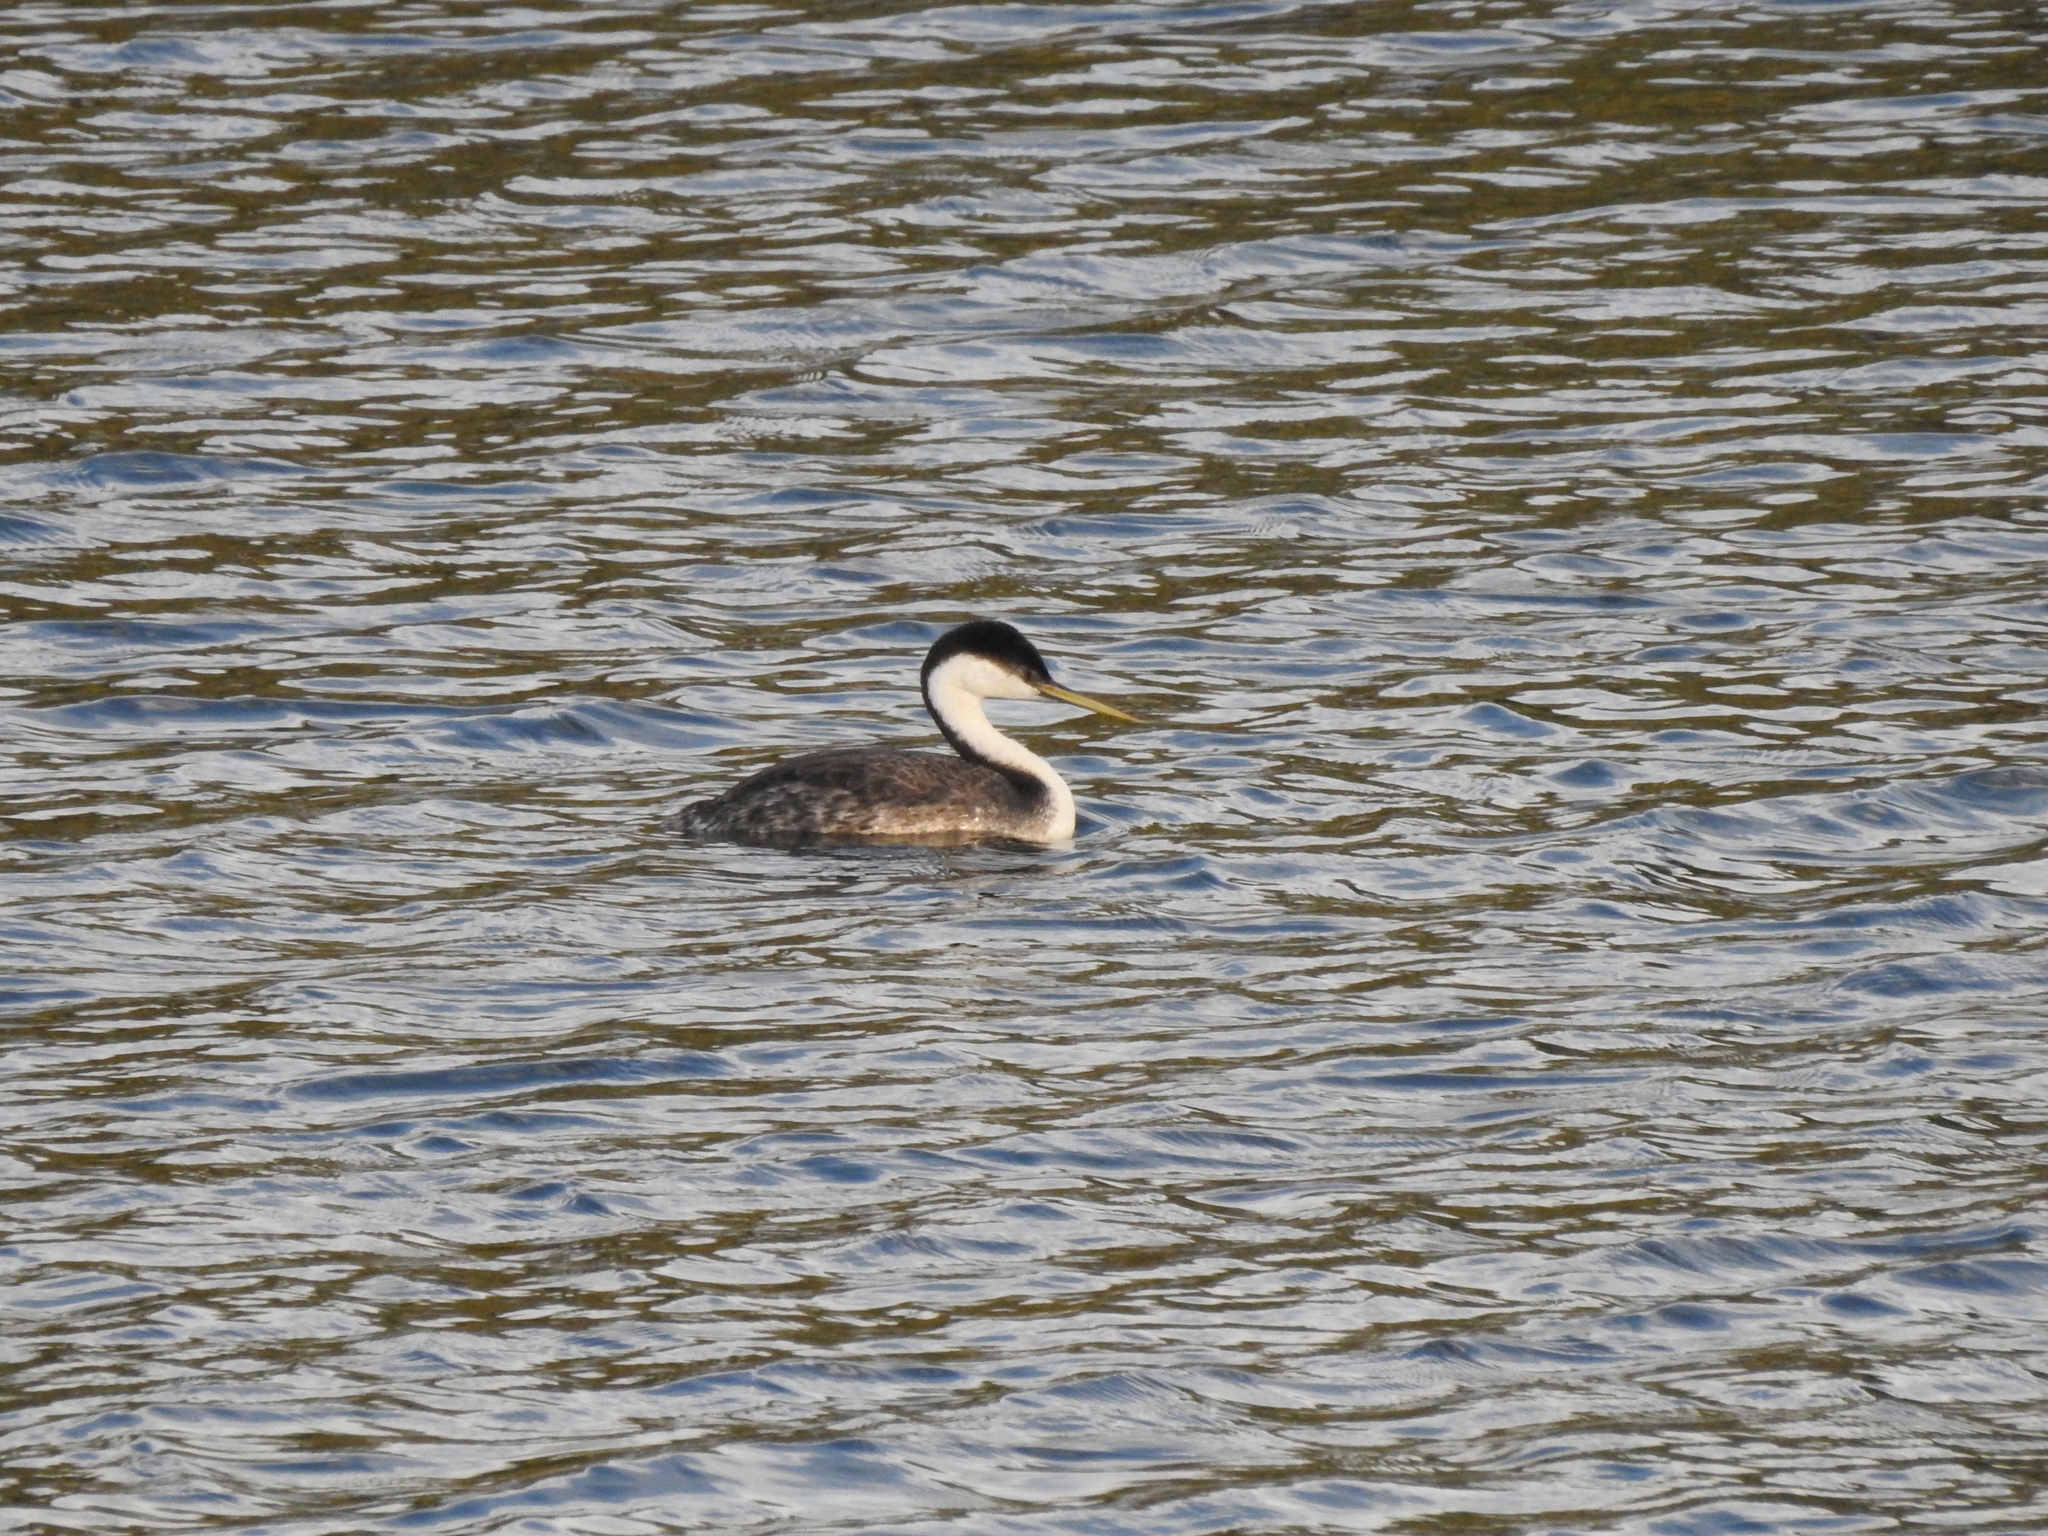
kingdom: Animalia
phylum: Chordata
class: Aves
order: Podicipediformes
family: Podicipedidae
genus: Aechmophorus
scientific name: Aechmophorus occidentalis
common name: Western grebe
